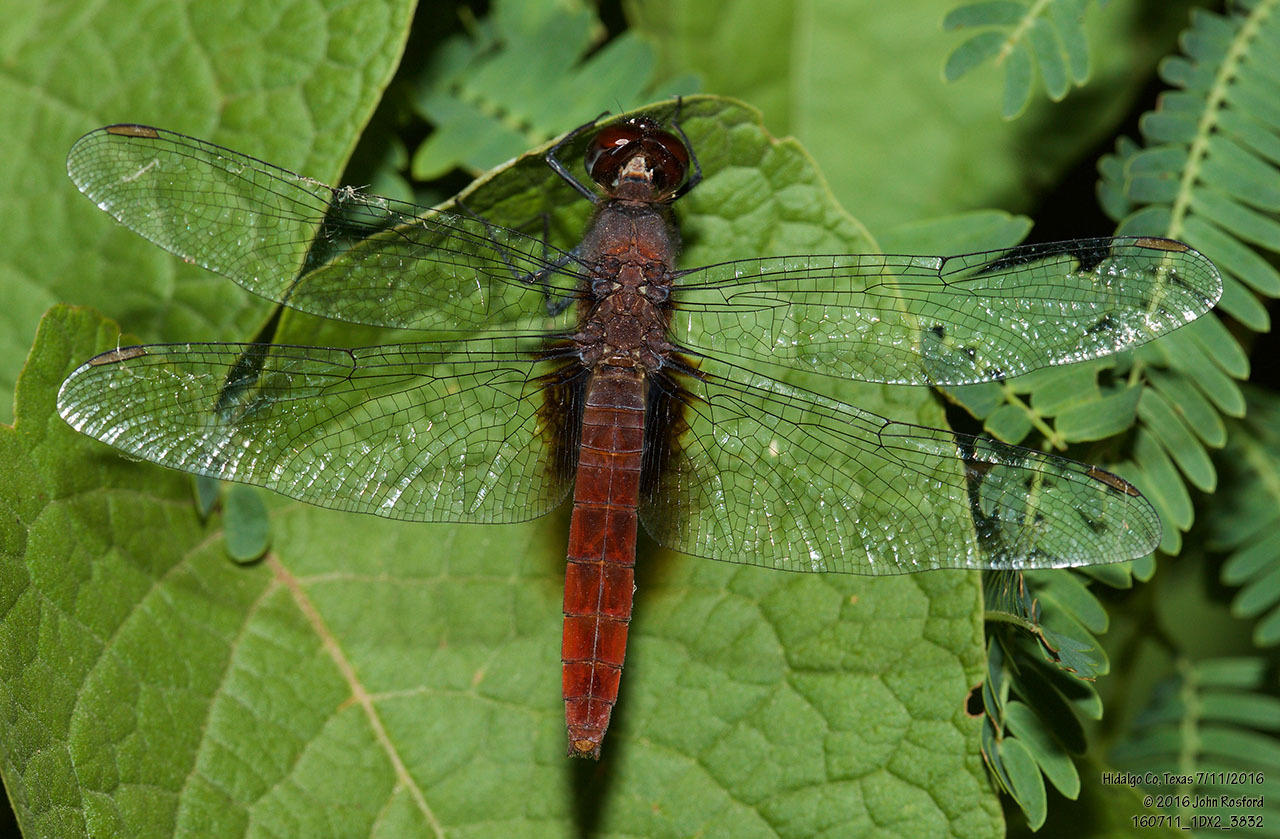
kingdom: Animalia
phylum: Arthropoda
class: Insecta
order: Odonata
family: Libellulidae
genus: Planiplax
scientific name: Planiplax sanguiniventris
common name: Mexican scarlet-tail
